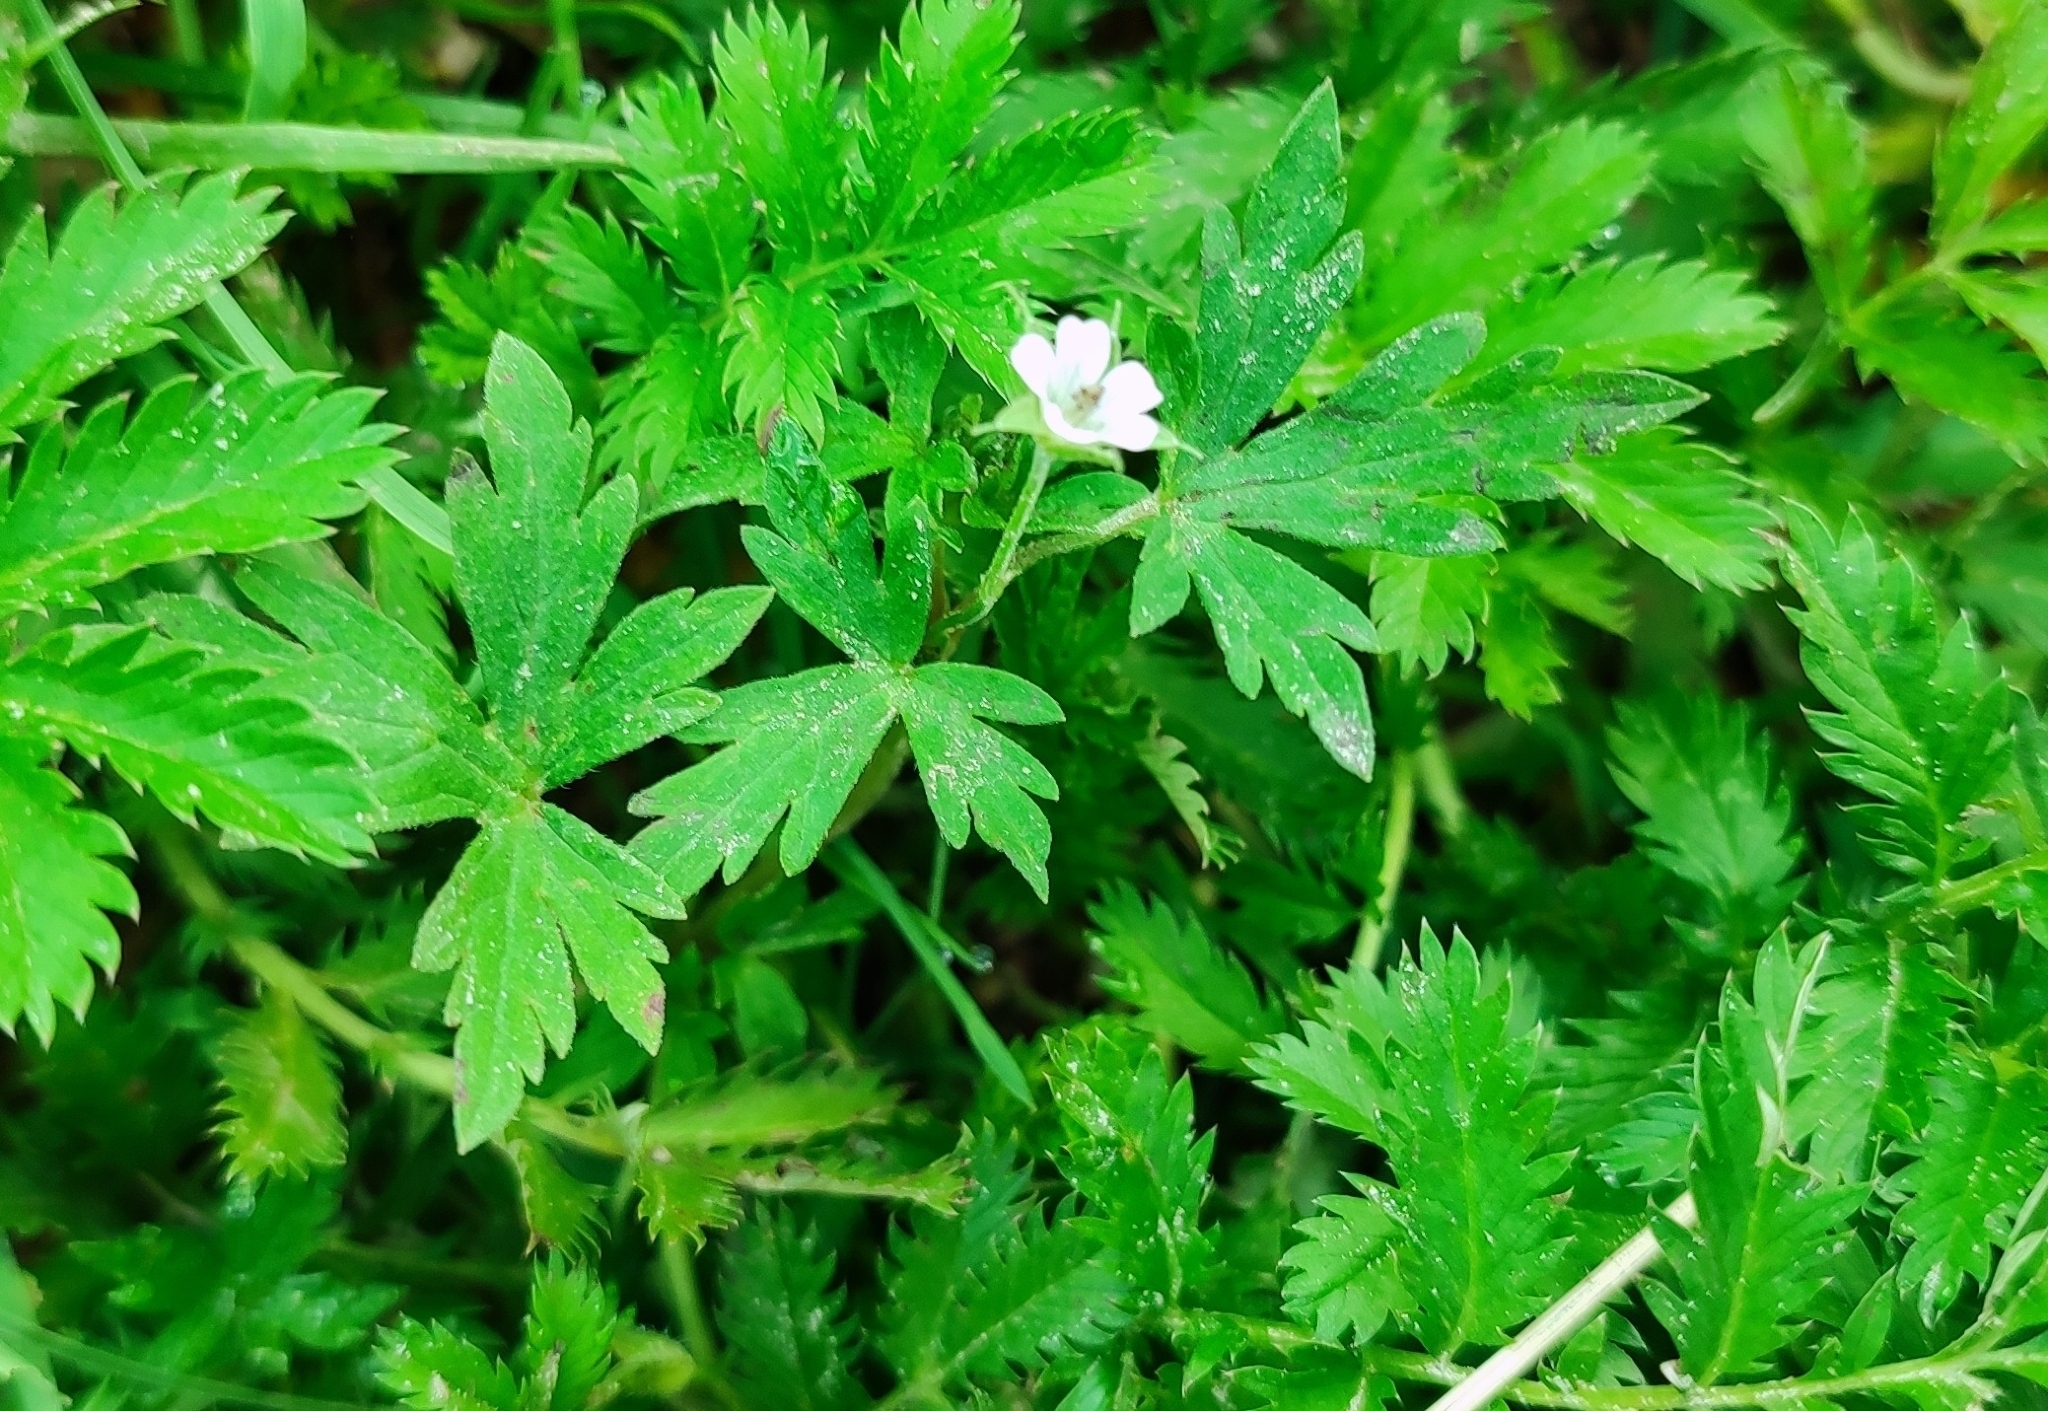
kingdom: Plantae
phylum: Tracheophyta
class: Magnoliopsida
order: Geraniales
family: Geraniaceae
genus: Geranium
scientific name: Geranium sibiricum
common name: Siberian crane's-bill
